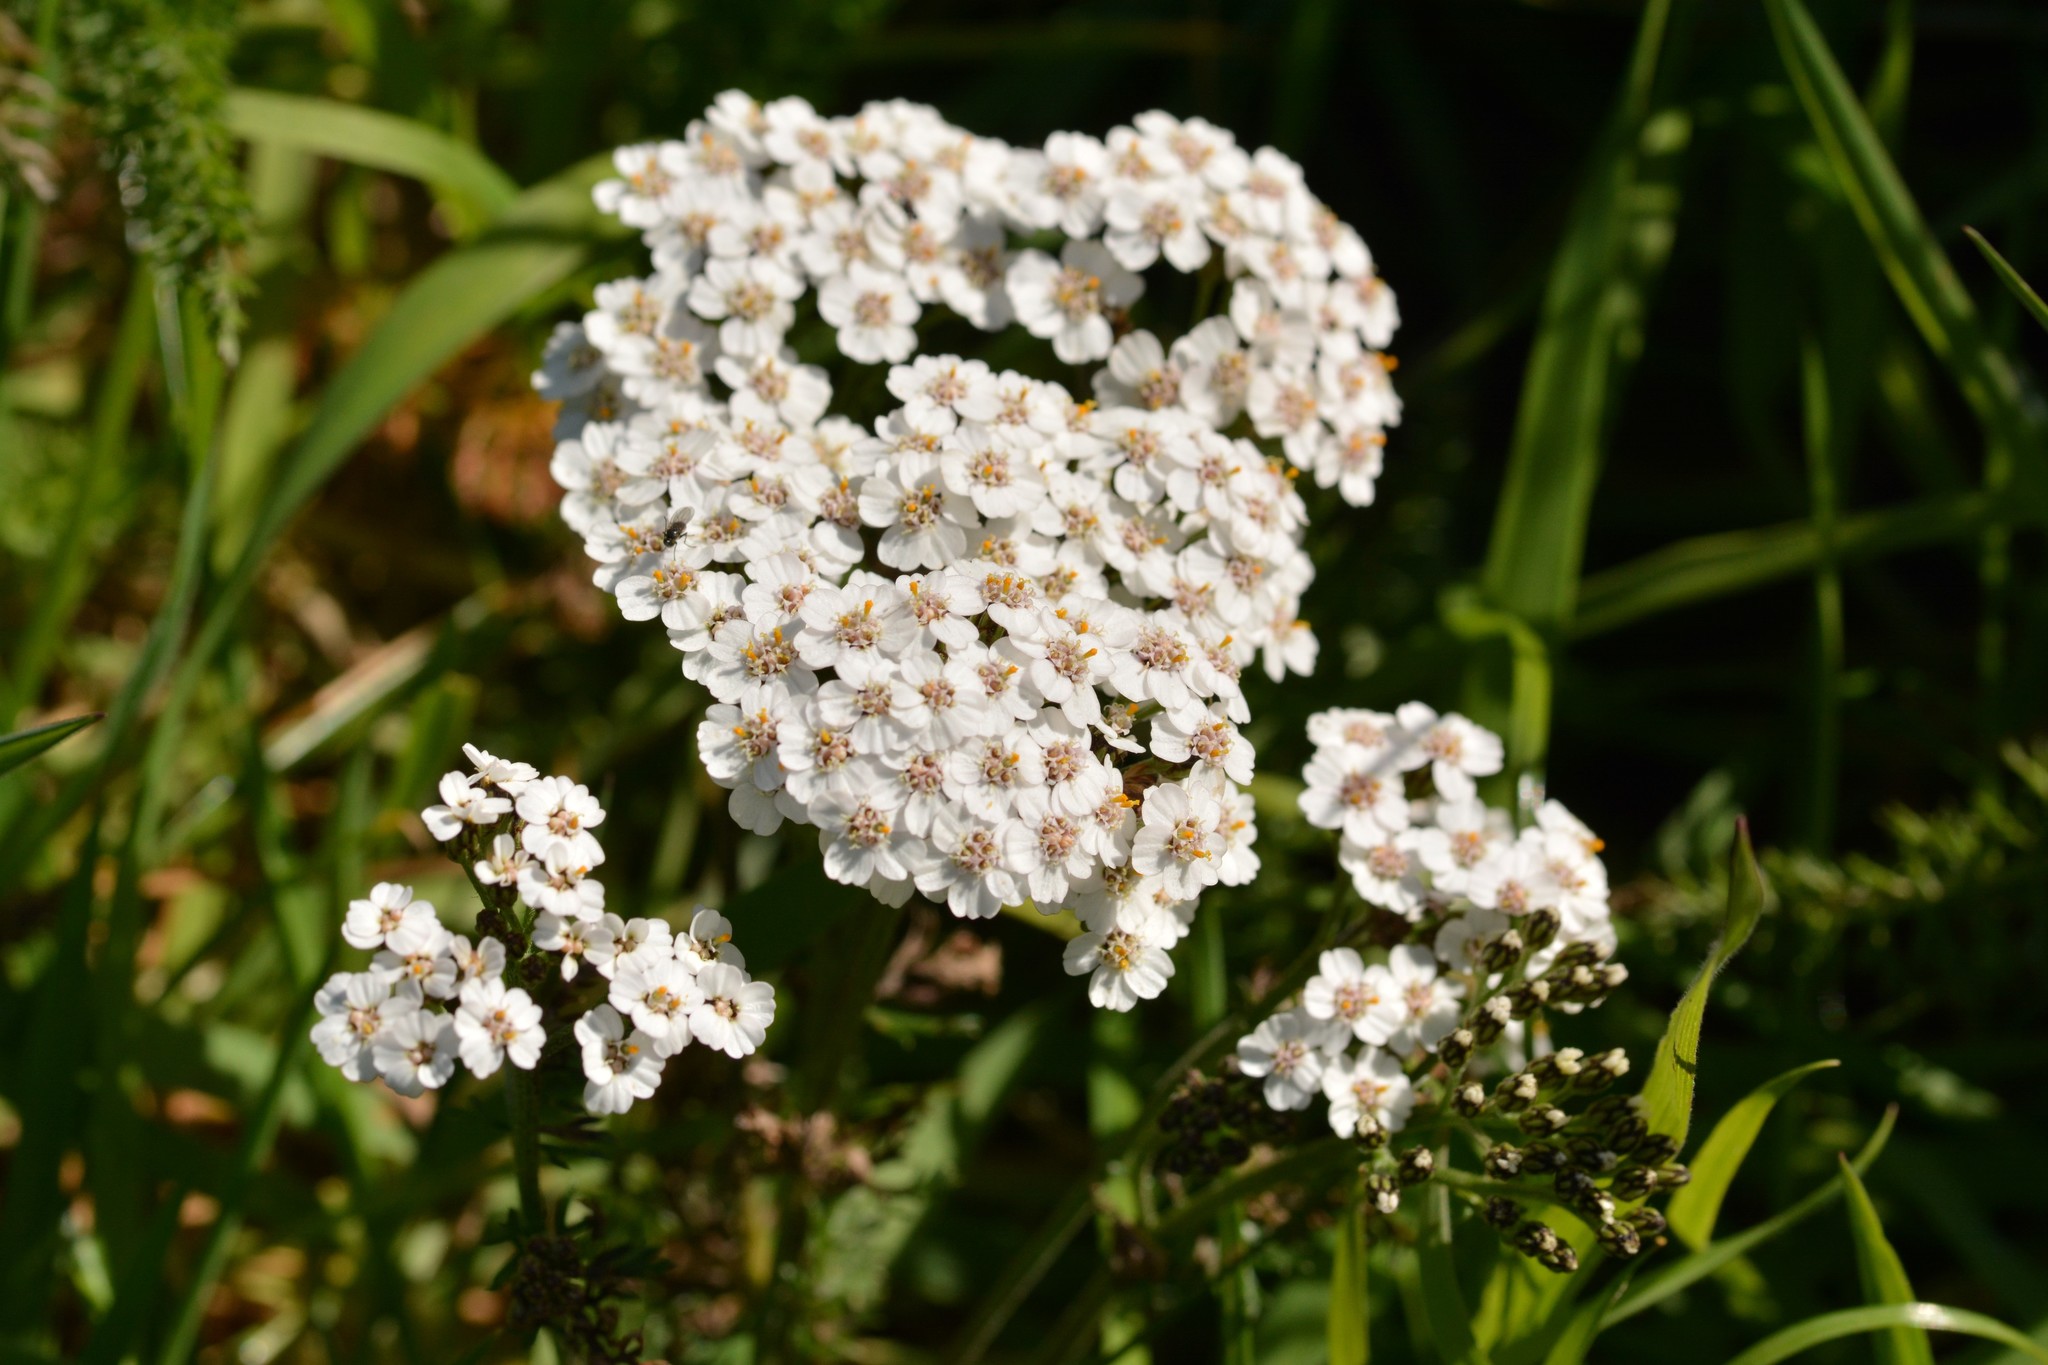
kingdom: Plantae
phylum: Tracheophyta
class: Magnoliopsida
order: Asterales
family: Asteraceae
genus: Achillea
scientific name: Achillea millefolium
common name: Yarrow
